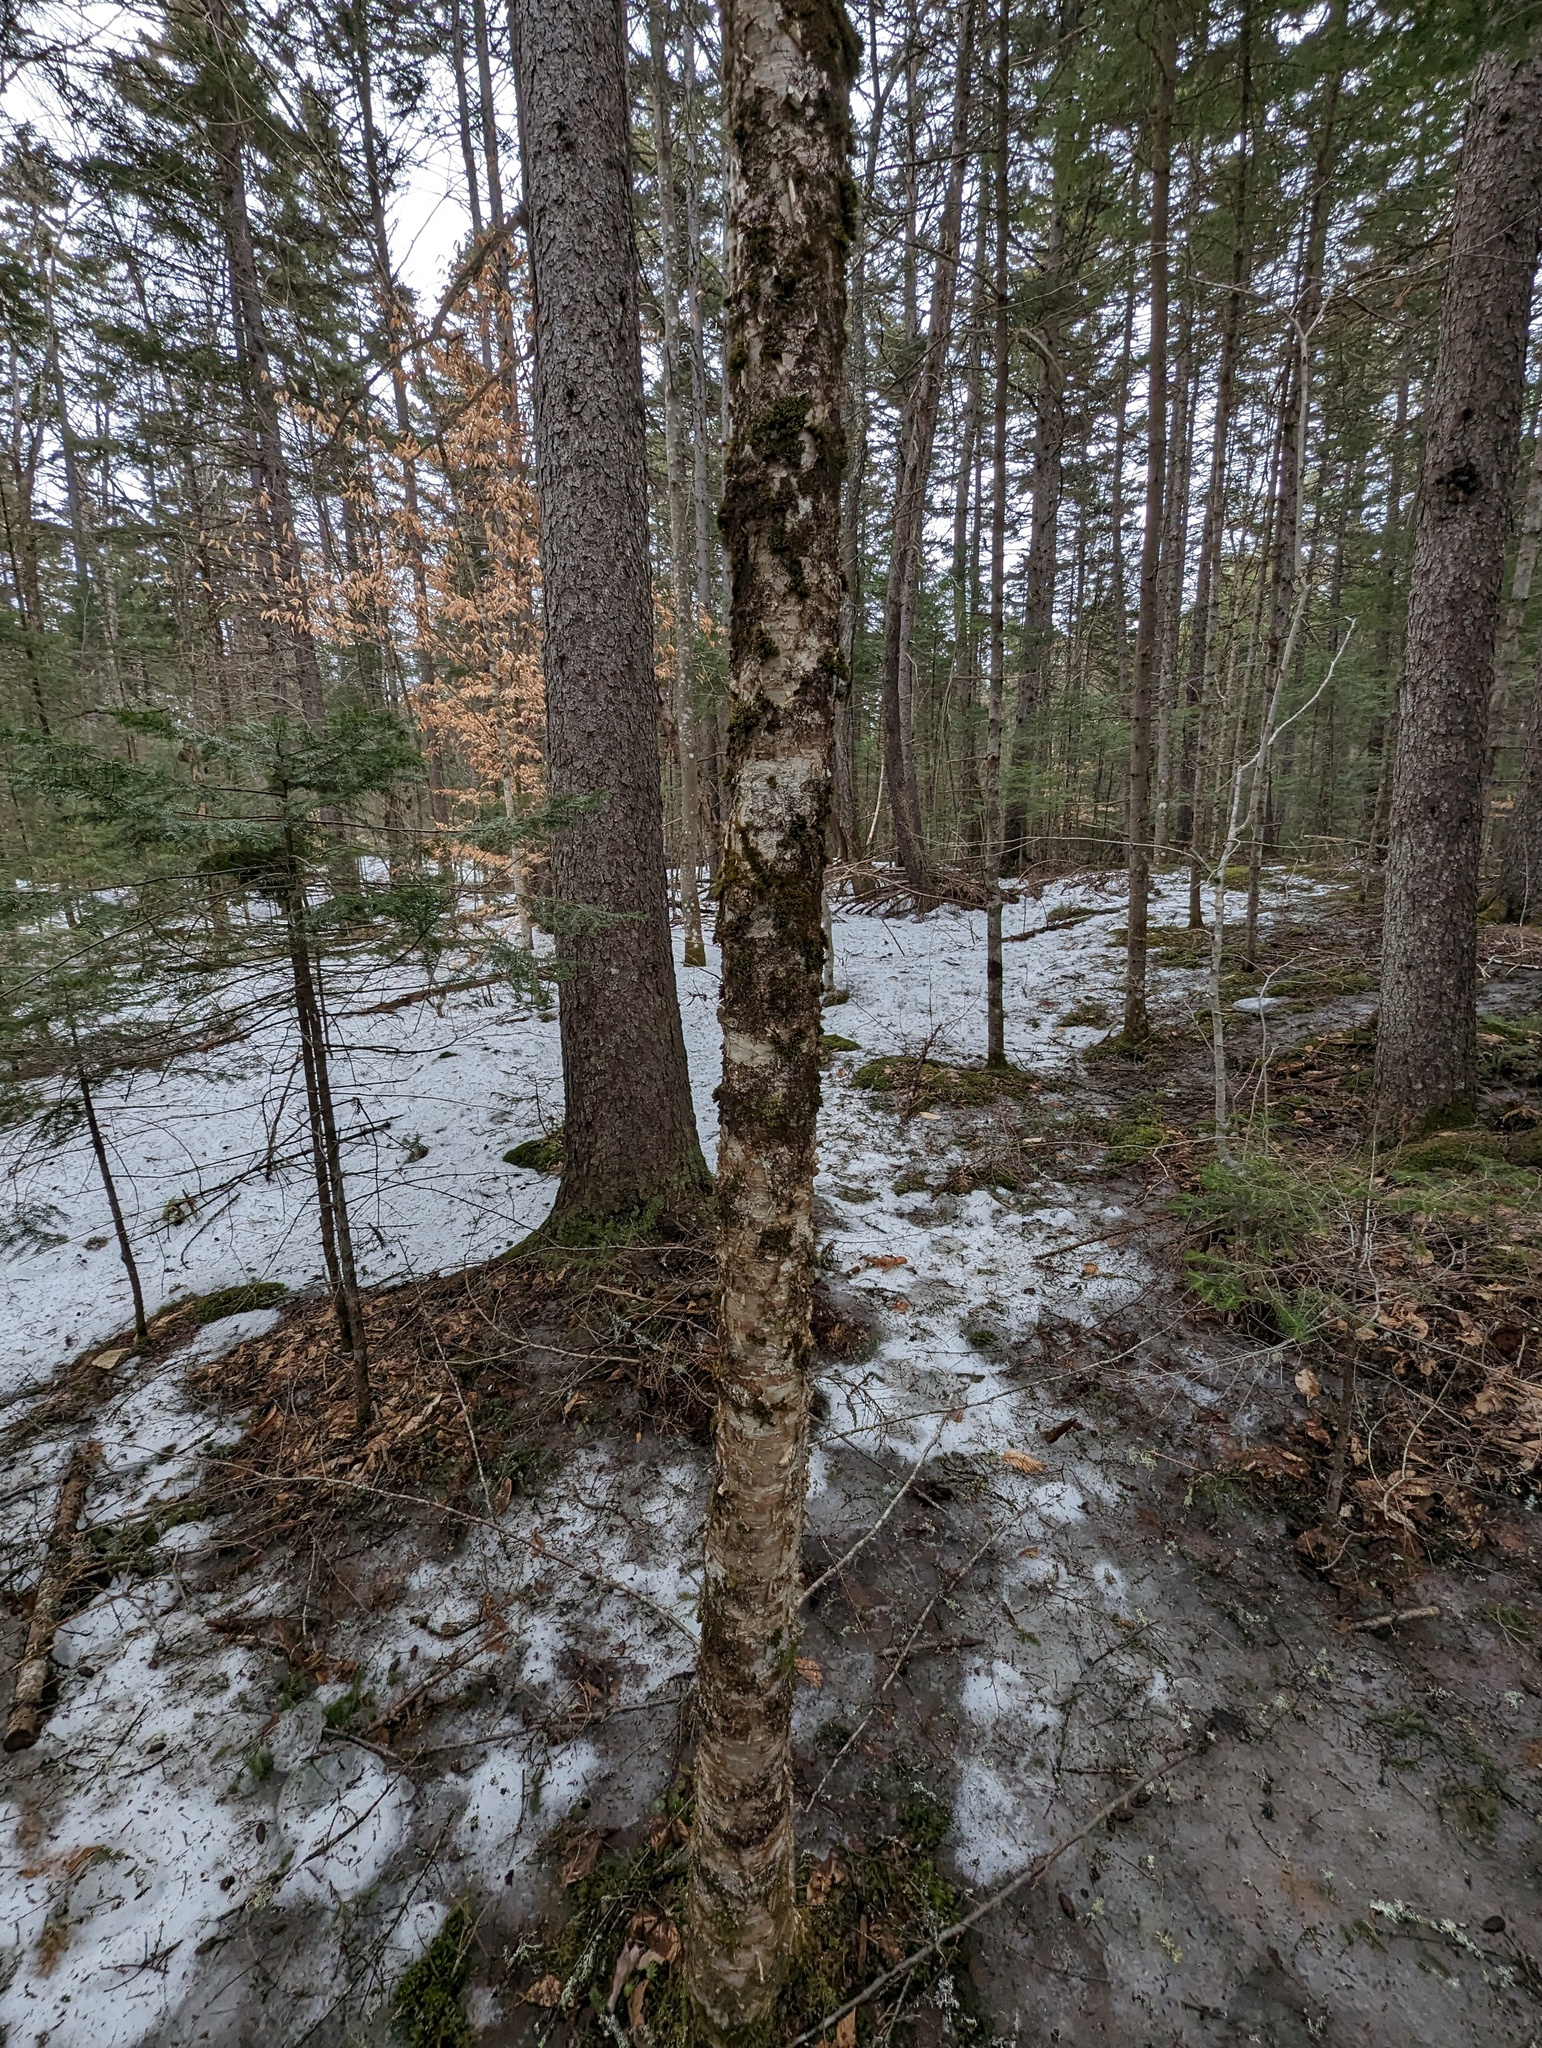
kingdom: Plantae
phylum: Tracheophyta
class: Magnoliopsida
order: Fagales
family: Betulaceae
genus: Betula
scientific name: Betula alleghaniensis
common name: Yellow birch
